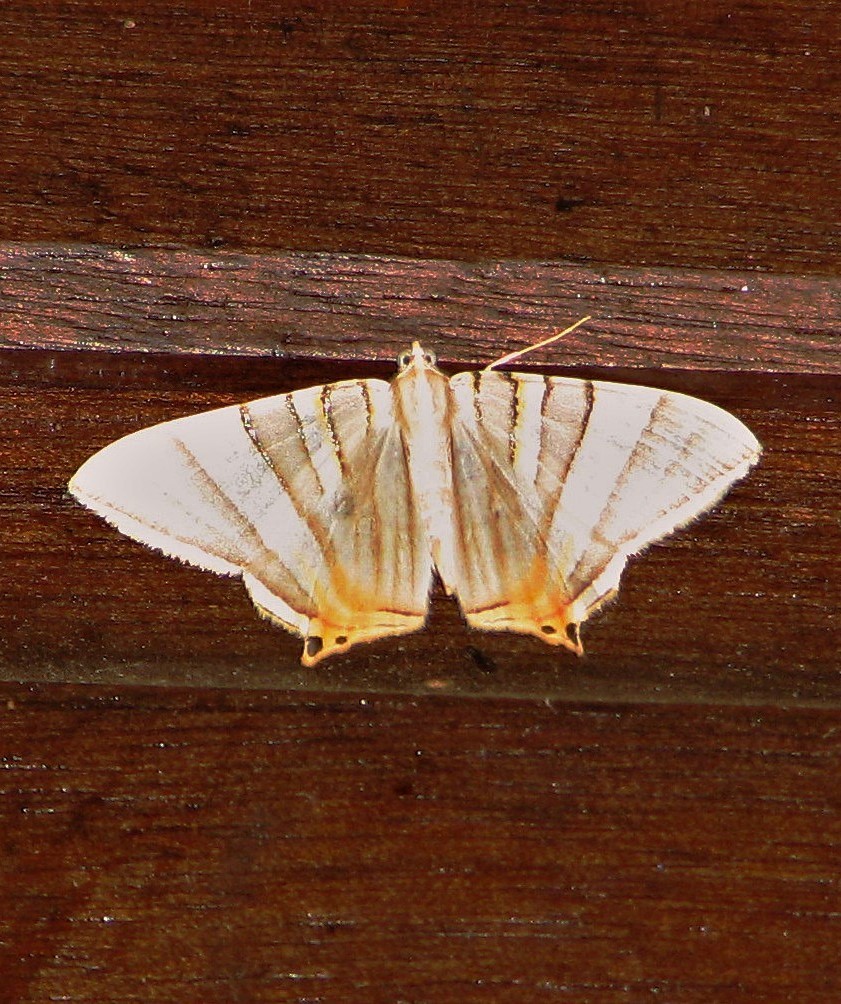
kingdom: Animalia
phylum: Arthropoda
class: Insecta
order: Lepidoptera
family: Geometridae
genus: Phrygionis
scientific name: Phrygionis platinata
